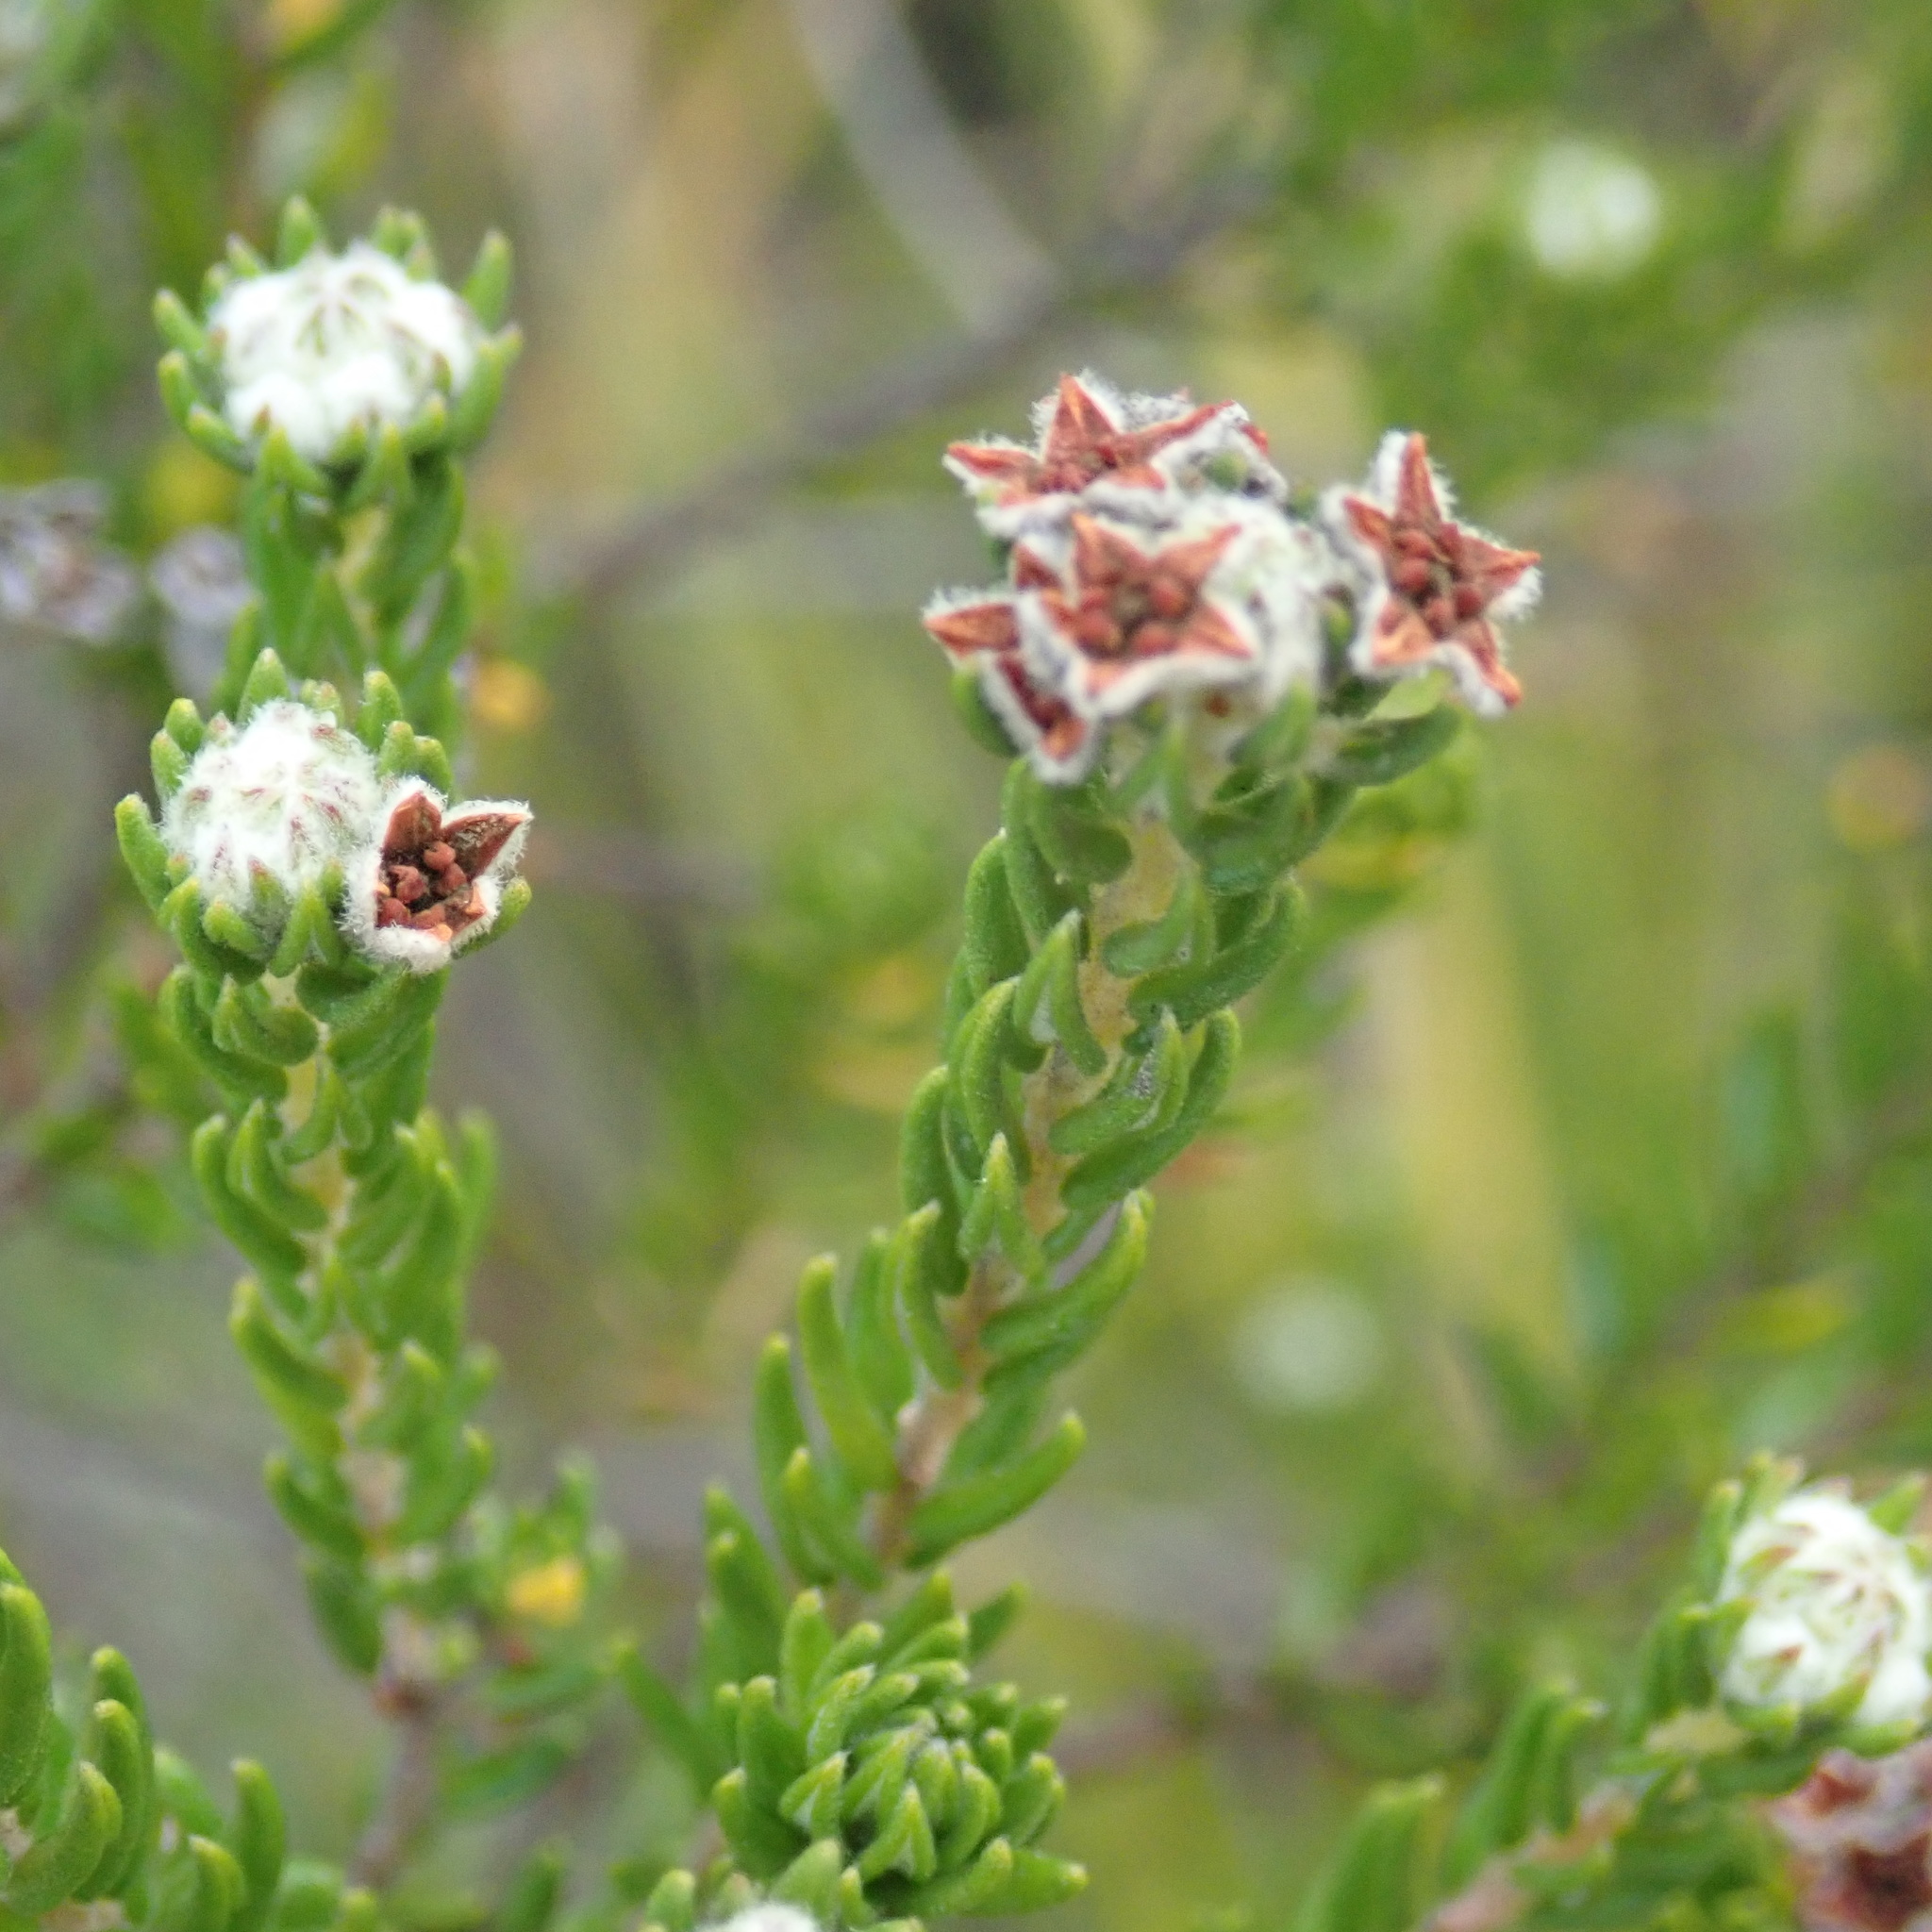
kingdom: Plantae
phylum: Tracheophyta
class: Magnoliopsida
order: Rosales
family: Rhamnaceae
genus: Phylica
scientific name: Phylica purpurea
